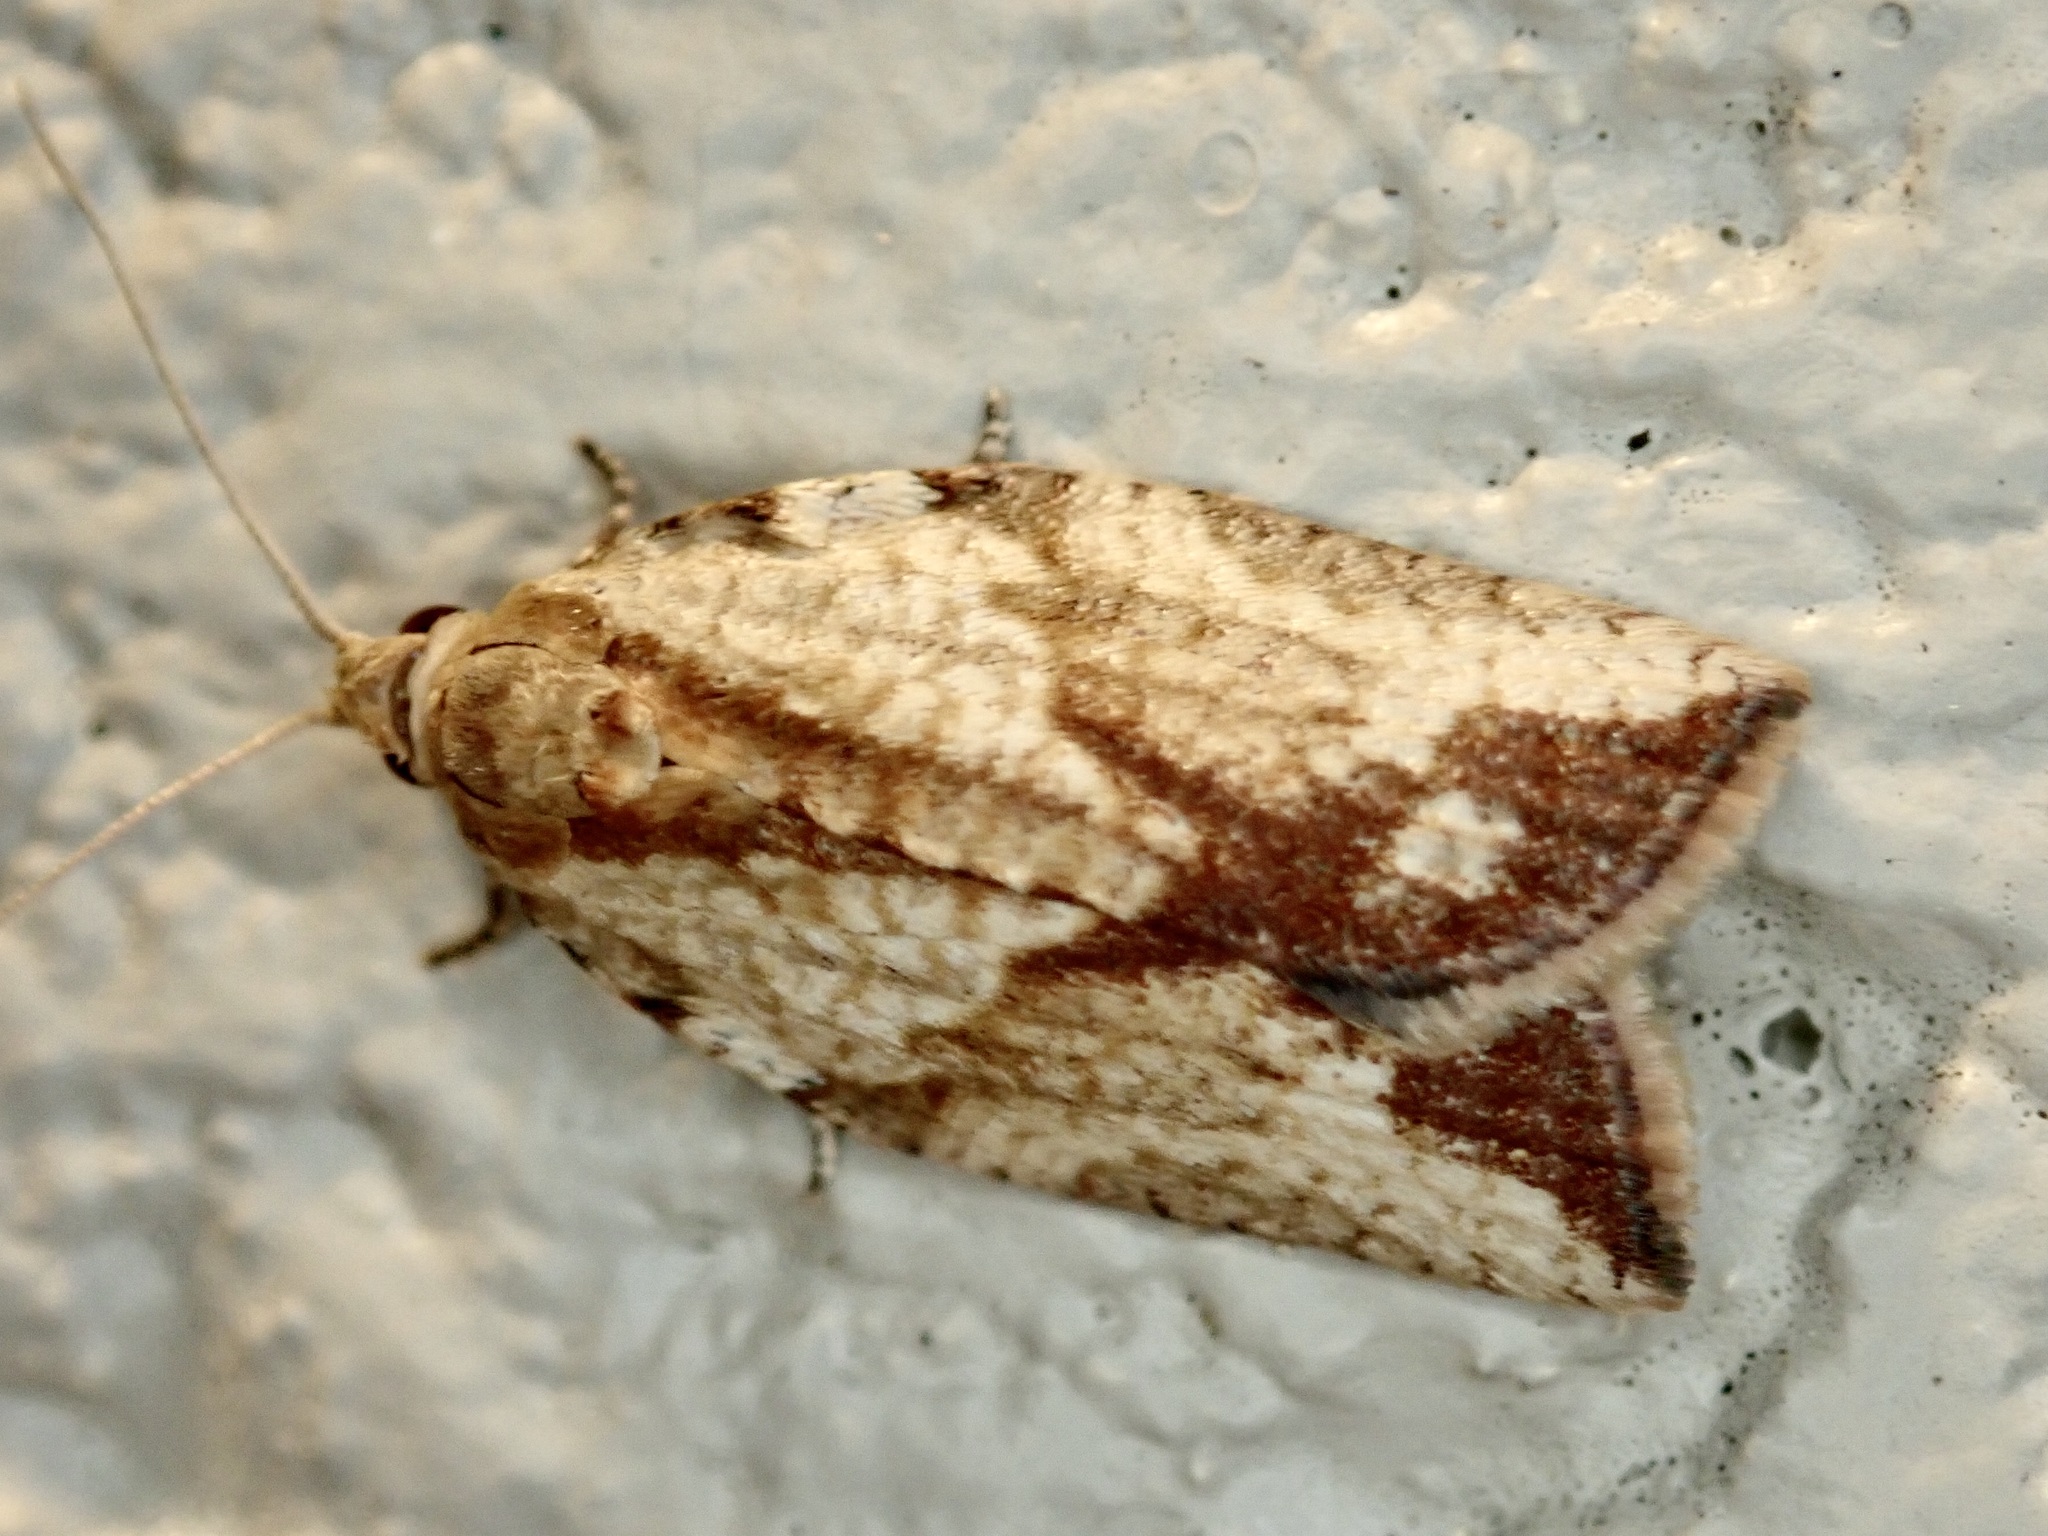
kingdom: Animalia
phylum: Arthropoda
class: Insecta
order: Lepidoptera
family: Tortricidae
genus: Epiphyas
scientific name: Epiphyas postvittana
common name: Light brown apple moth
